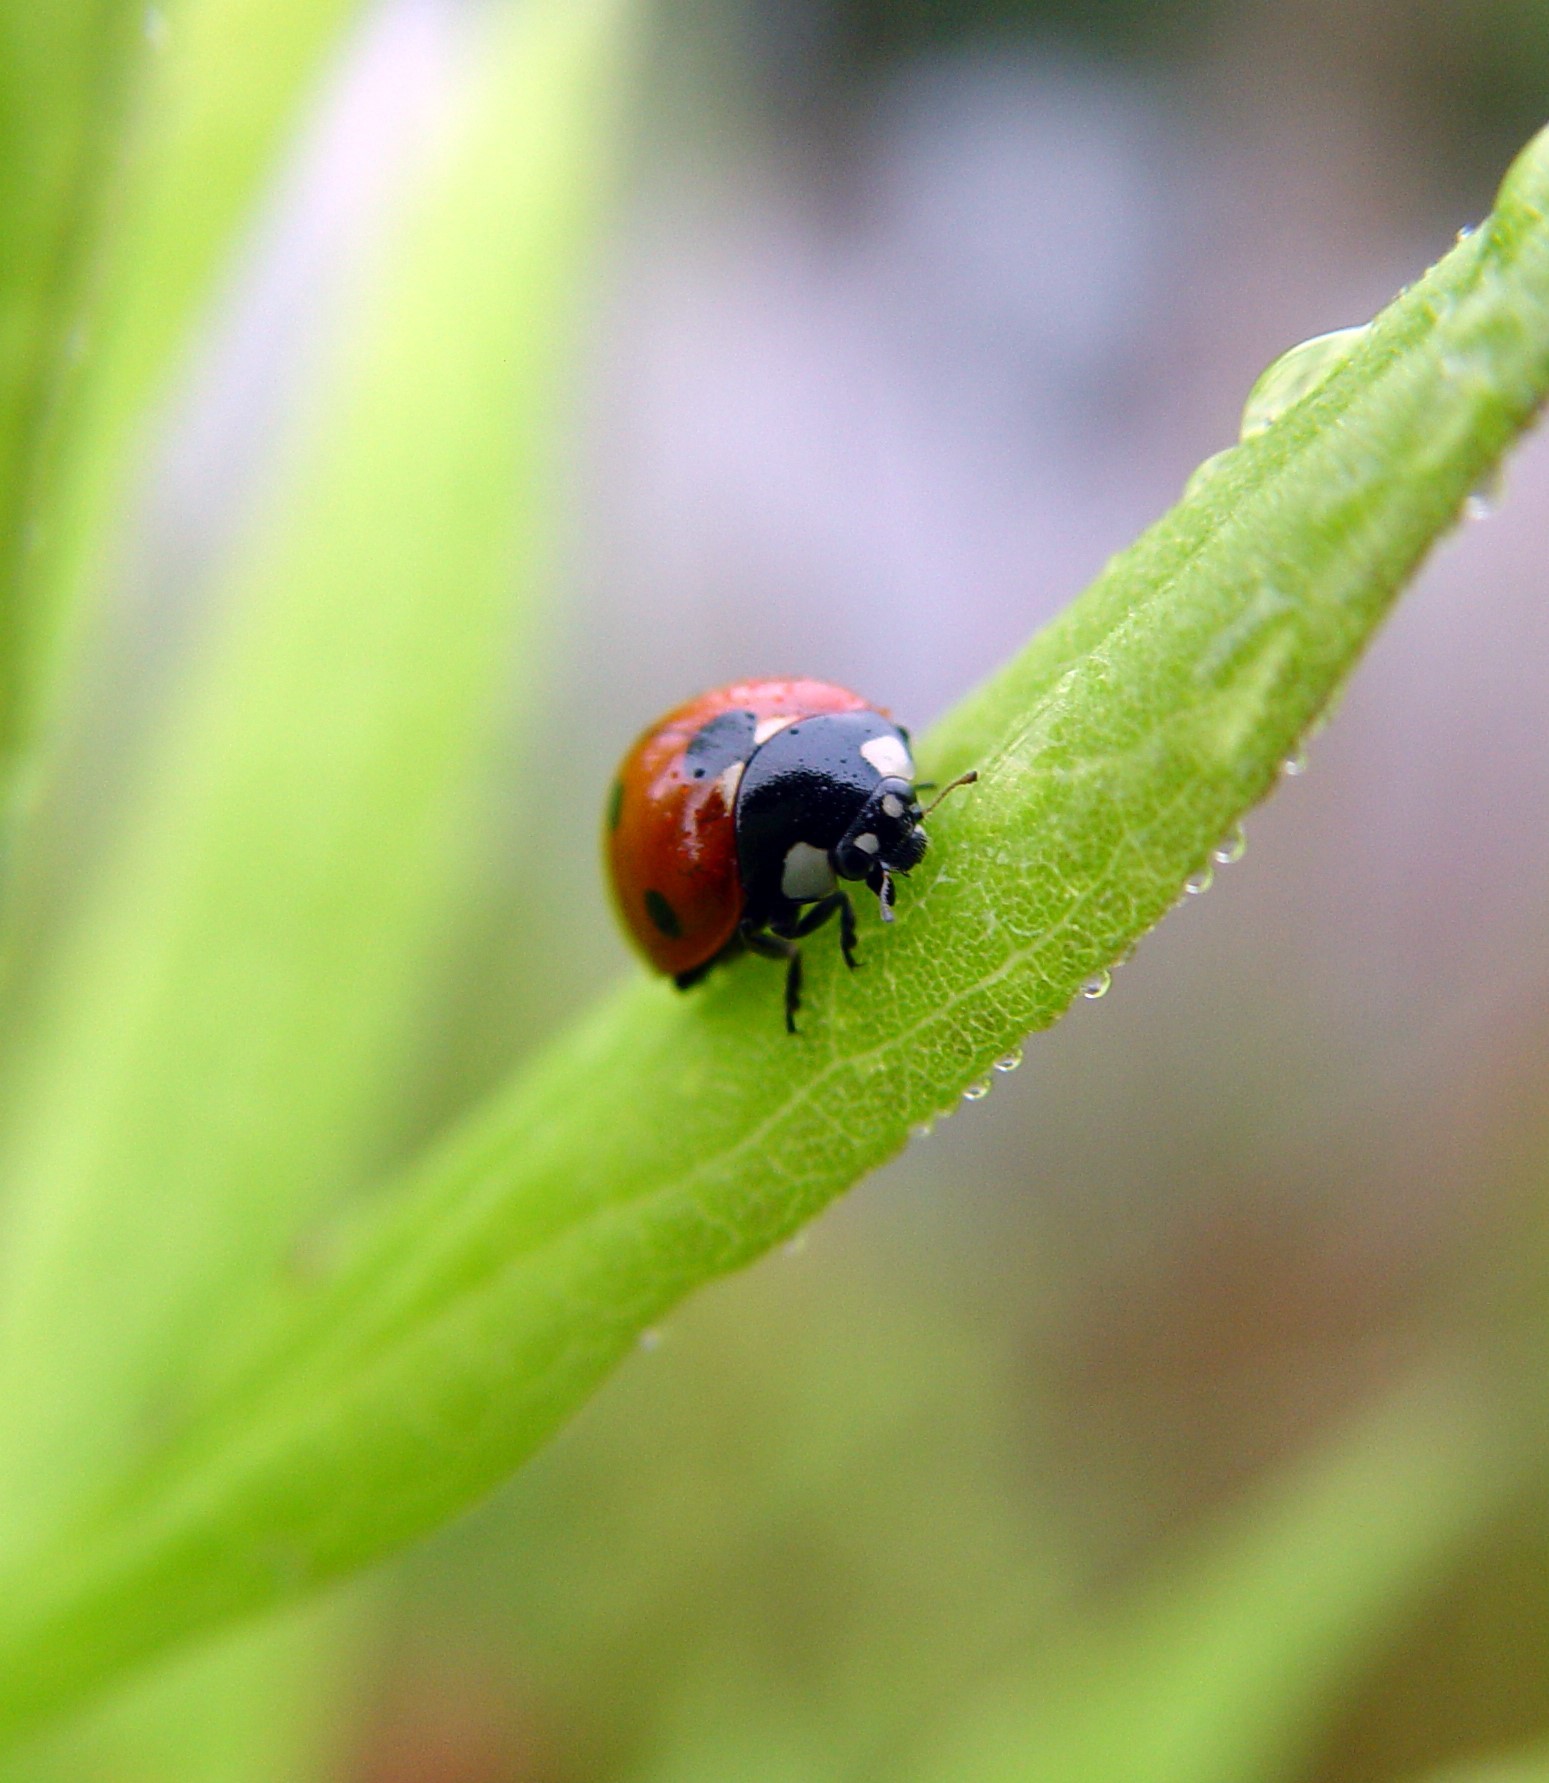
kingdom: Animalia
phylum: Arthropoda
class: Insecta
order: Coleoptera
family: Coccinellidae
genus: Coccinella
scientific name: Coccinella septempunctata
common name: Sevenspotted lady beetle
